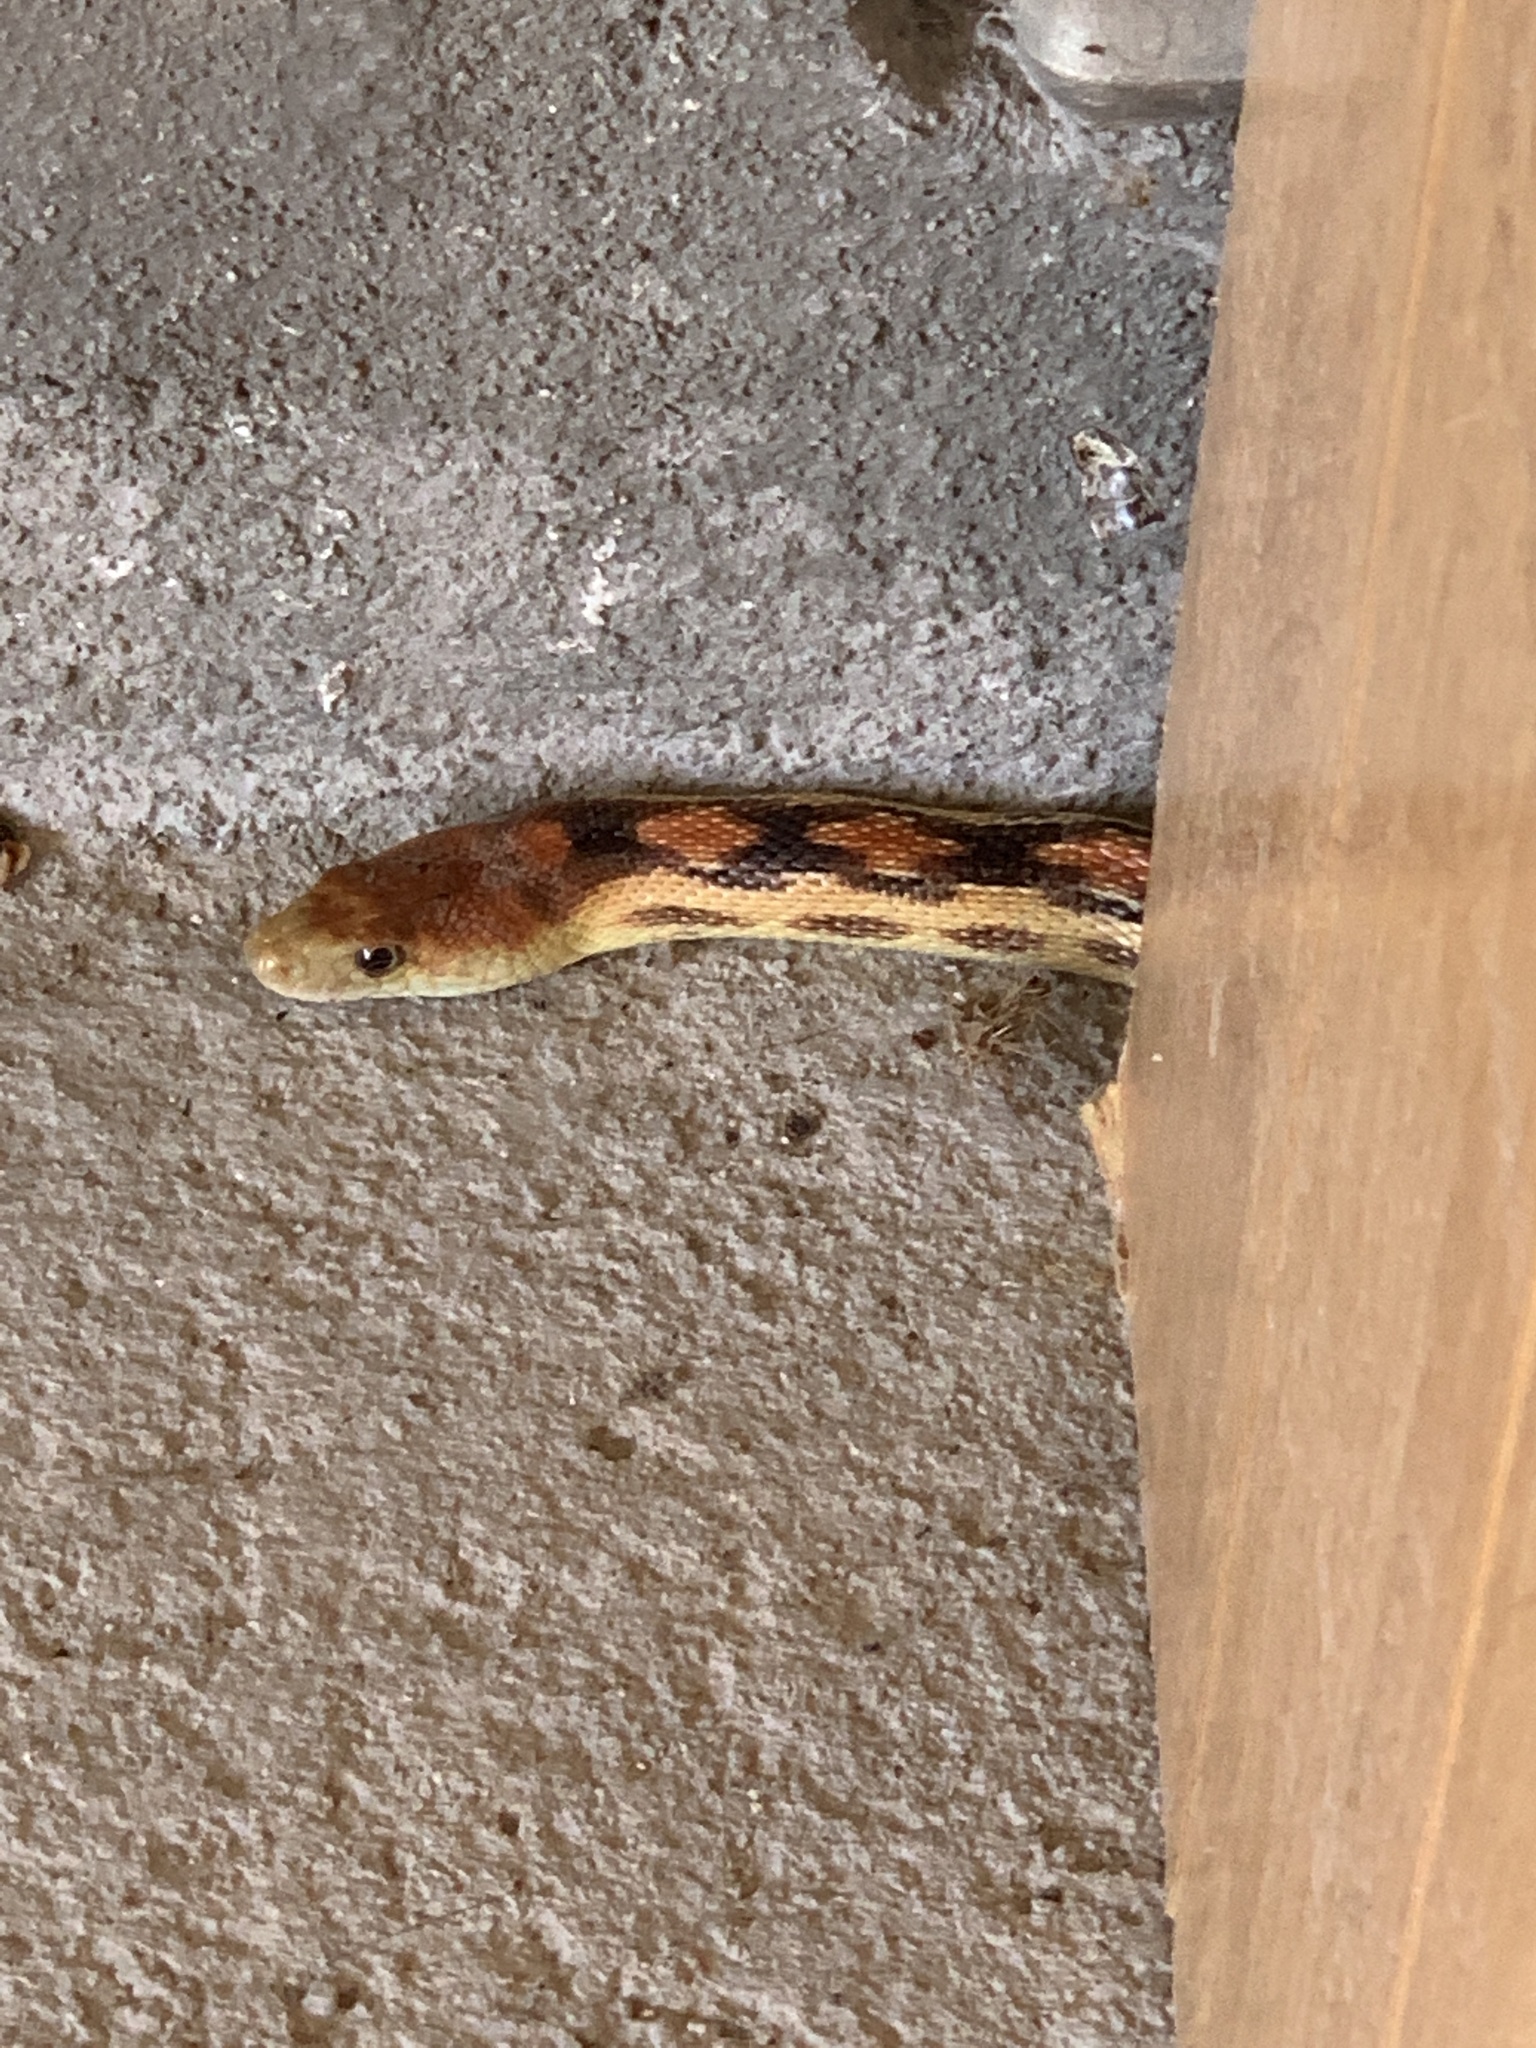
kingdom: Animalia
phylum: Chordata
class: Squamata
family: Colubridae
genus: Pituophis
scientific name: Pituophis vertebralis
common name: Cape gopher snake
